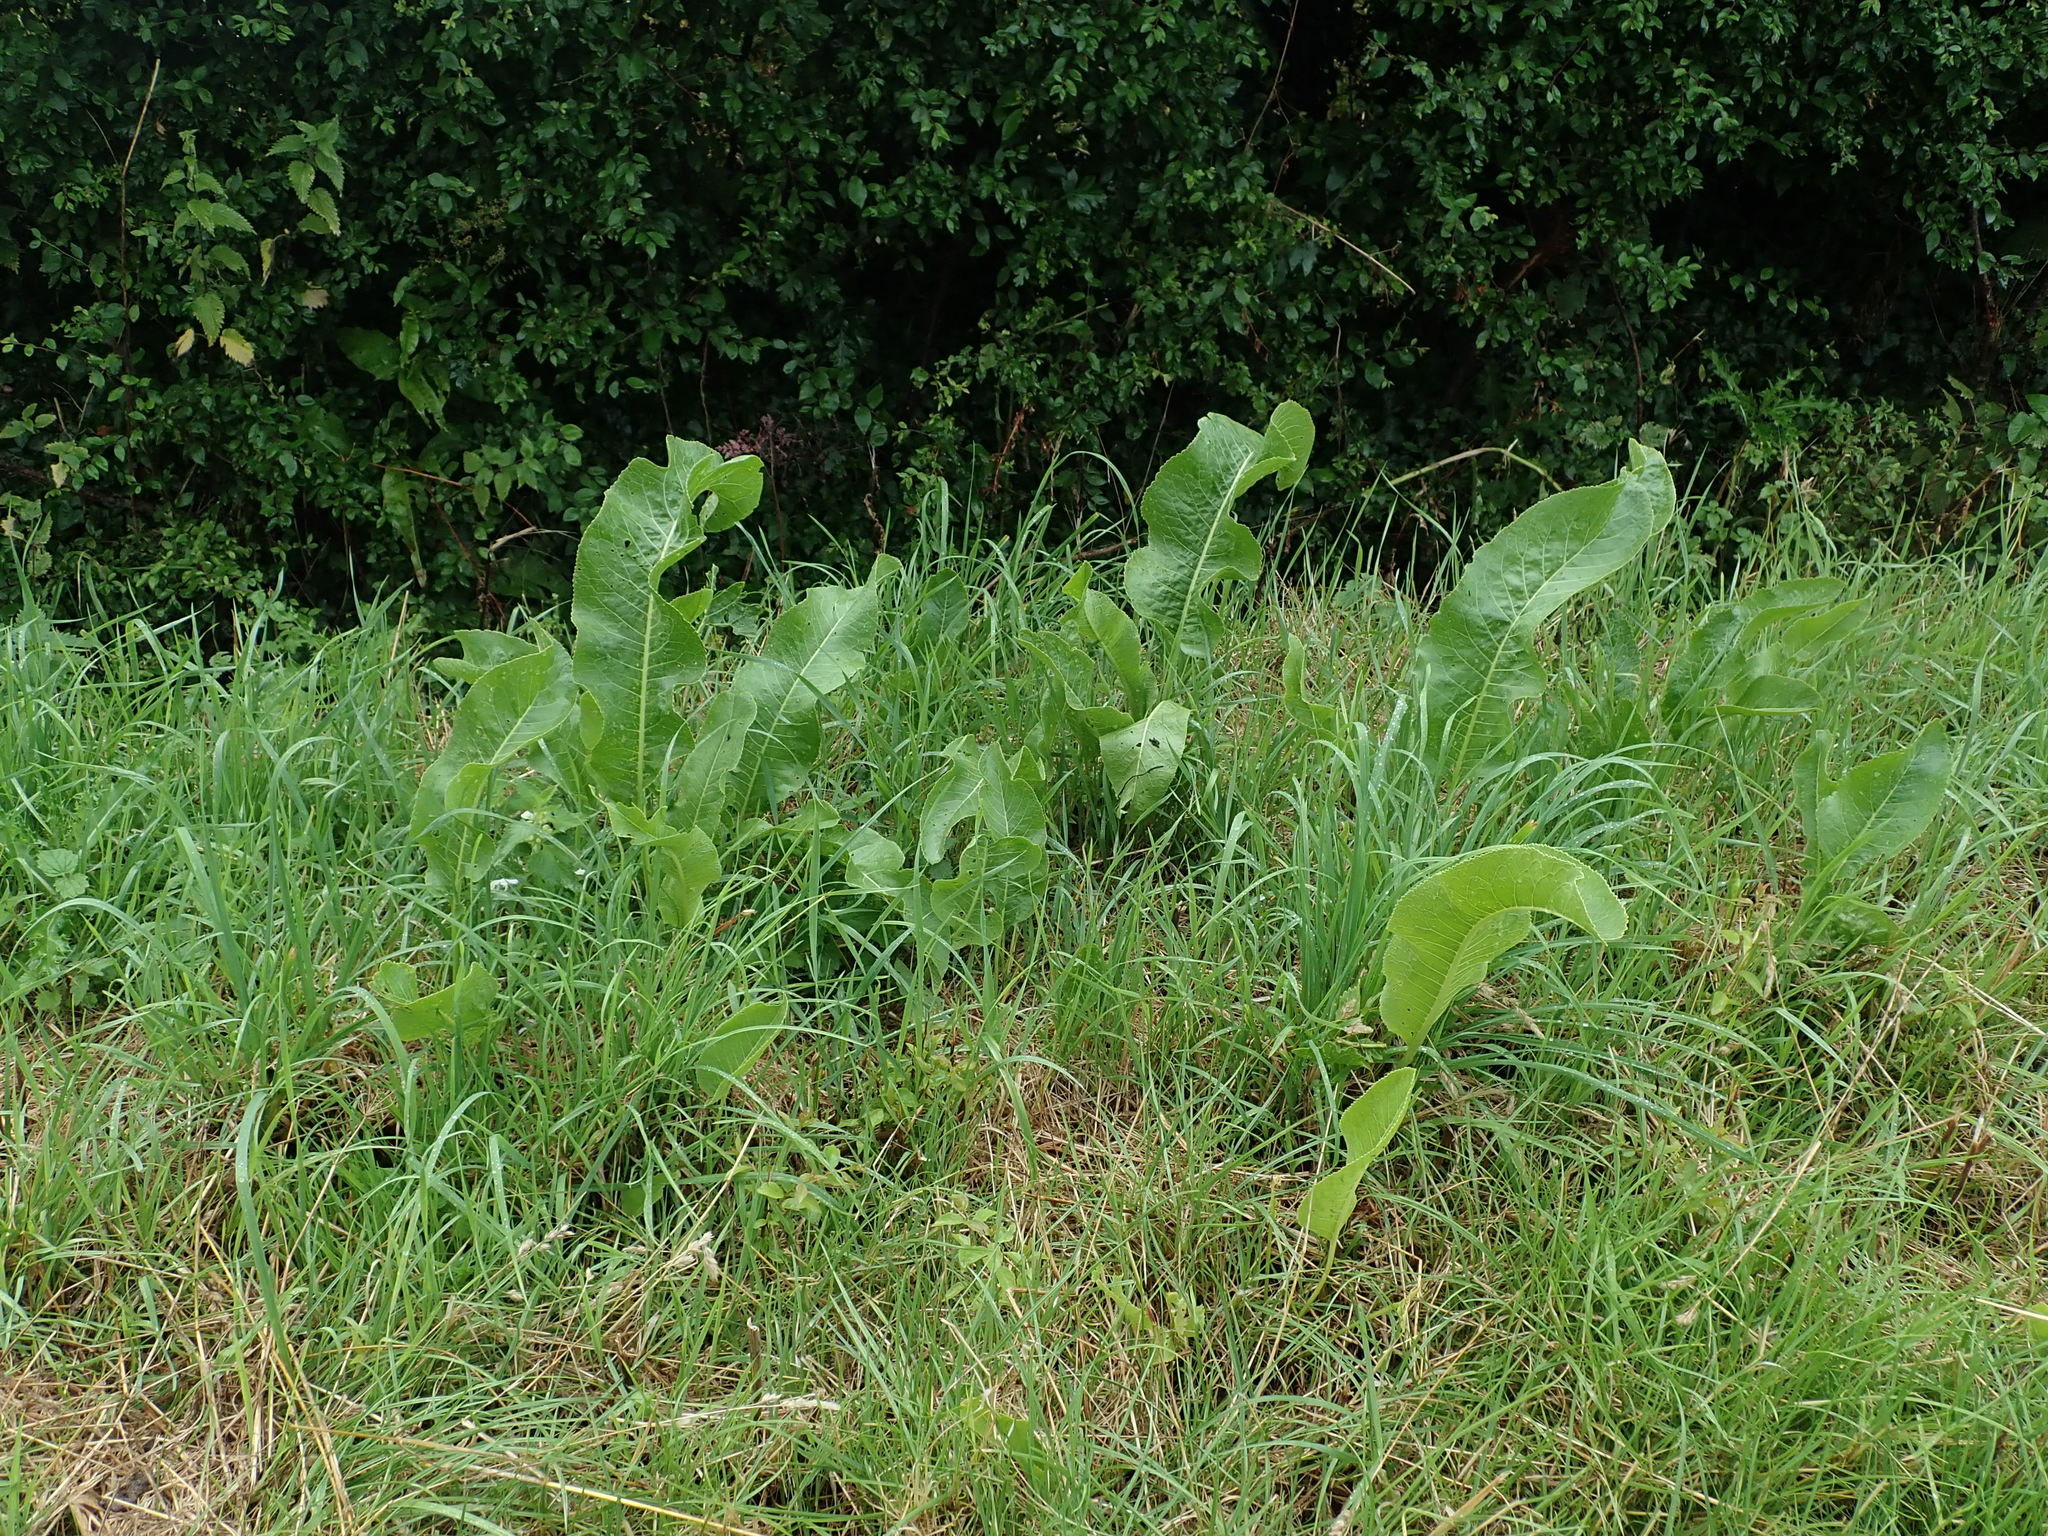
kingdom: Plantae
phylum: Tracheophyta
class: Magnoliopsida
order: Brassicales
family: Brassicaceae
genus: Armoracia
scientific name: Armoracia rusticana
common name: Horseradish
